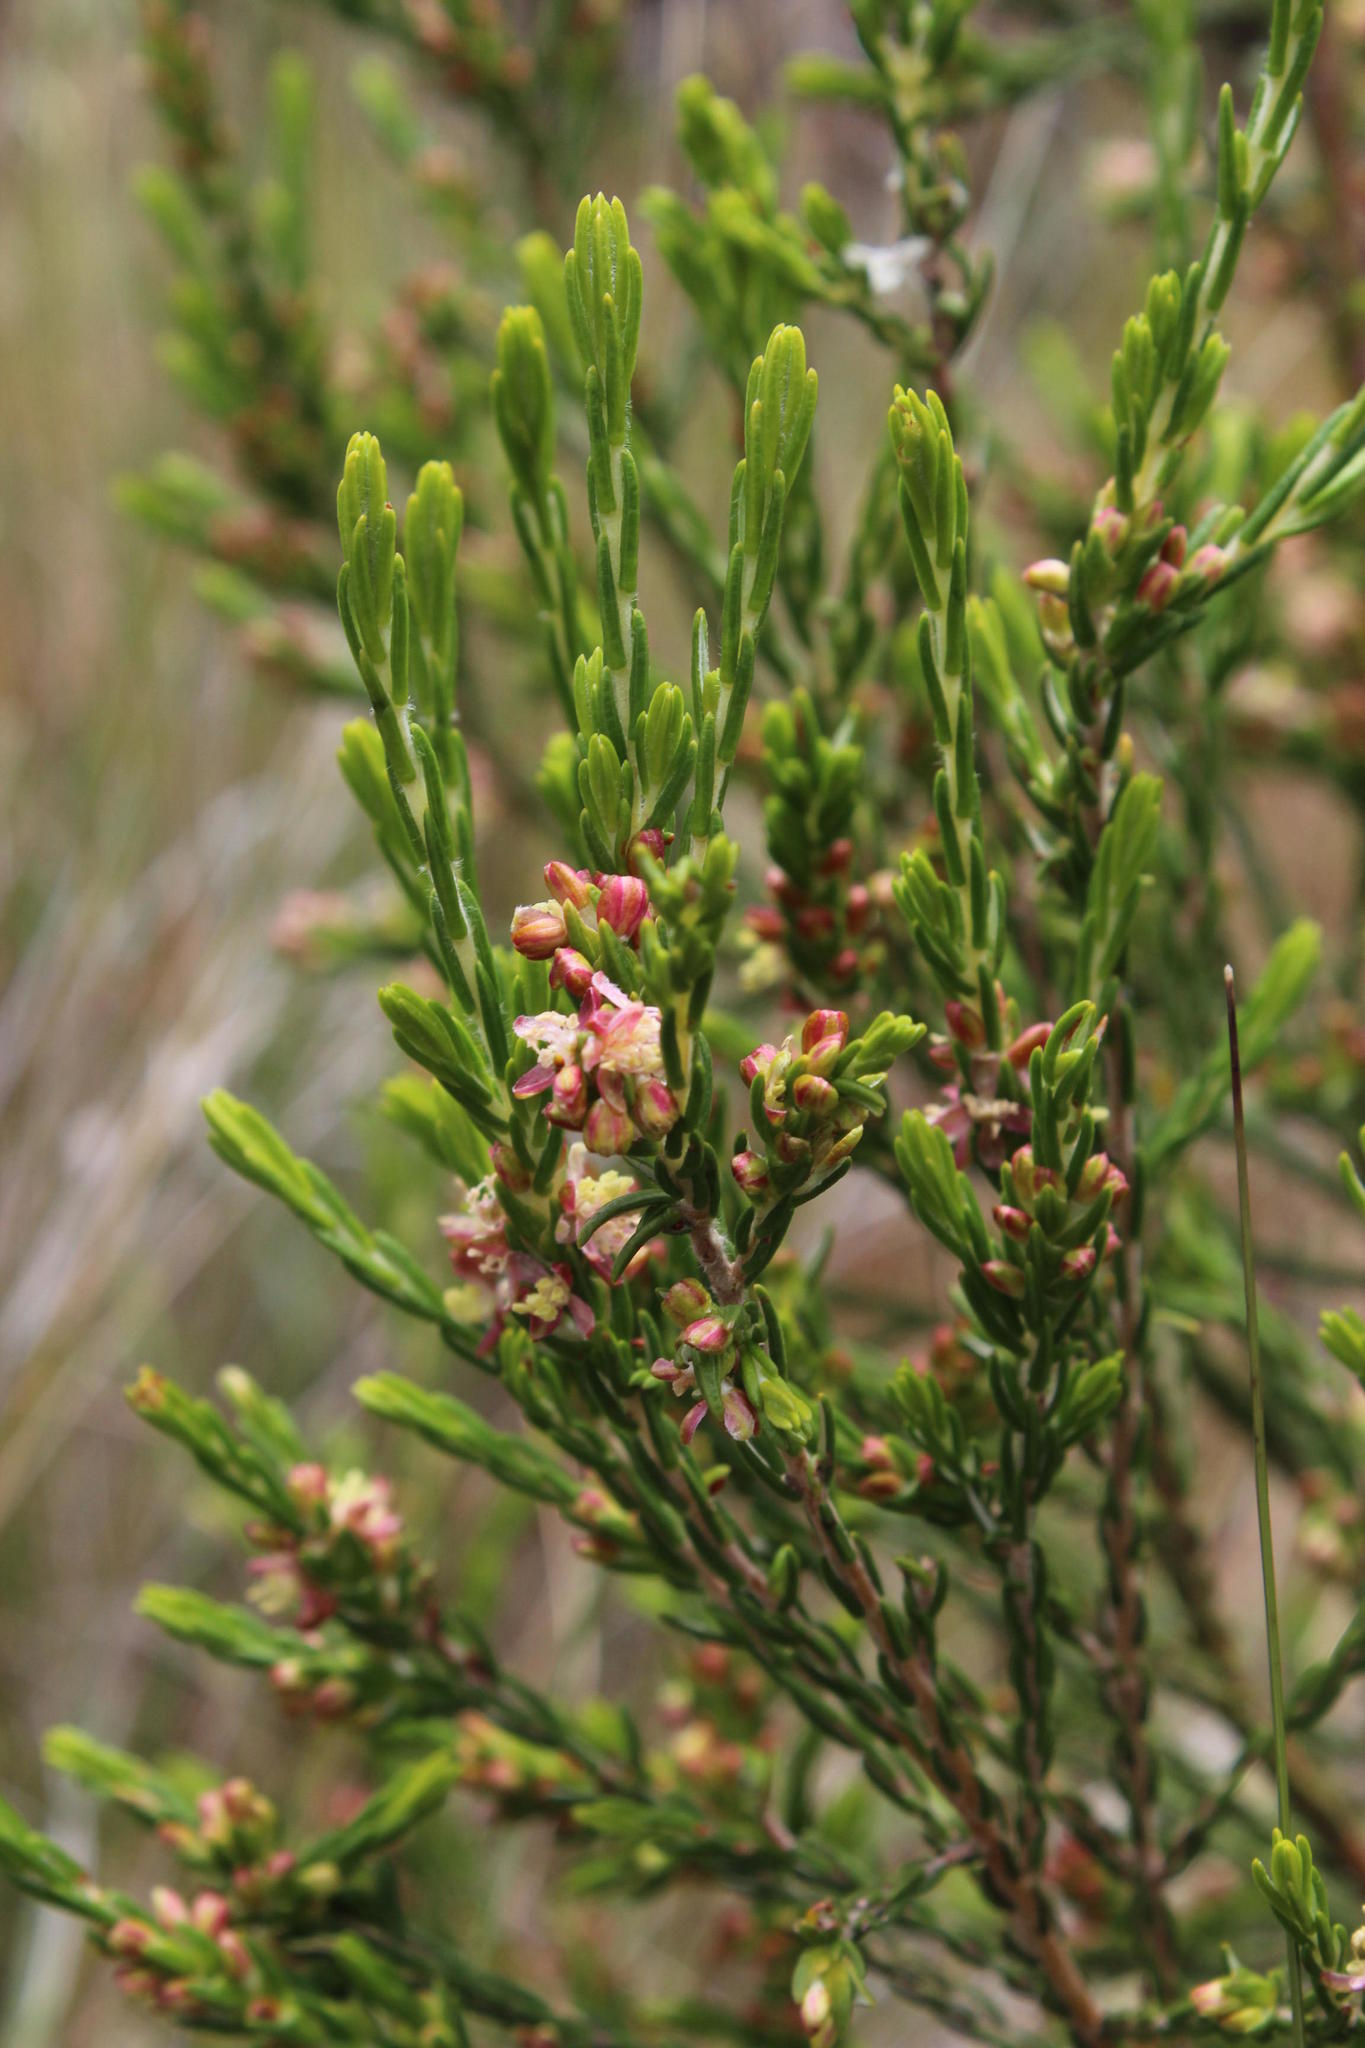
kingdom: Plantae
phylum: Tracheophyta
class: Magnoliopsida
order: Malvales
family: Thymelaeaceae
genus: Passerina
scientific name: Passerina corymbosa
